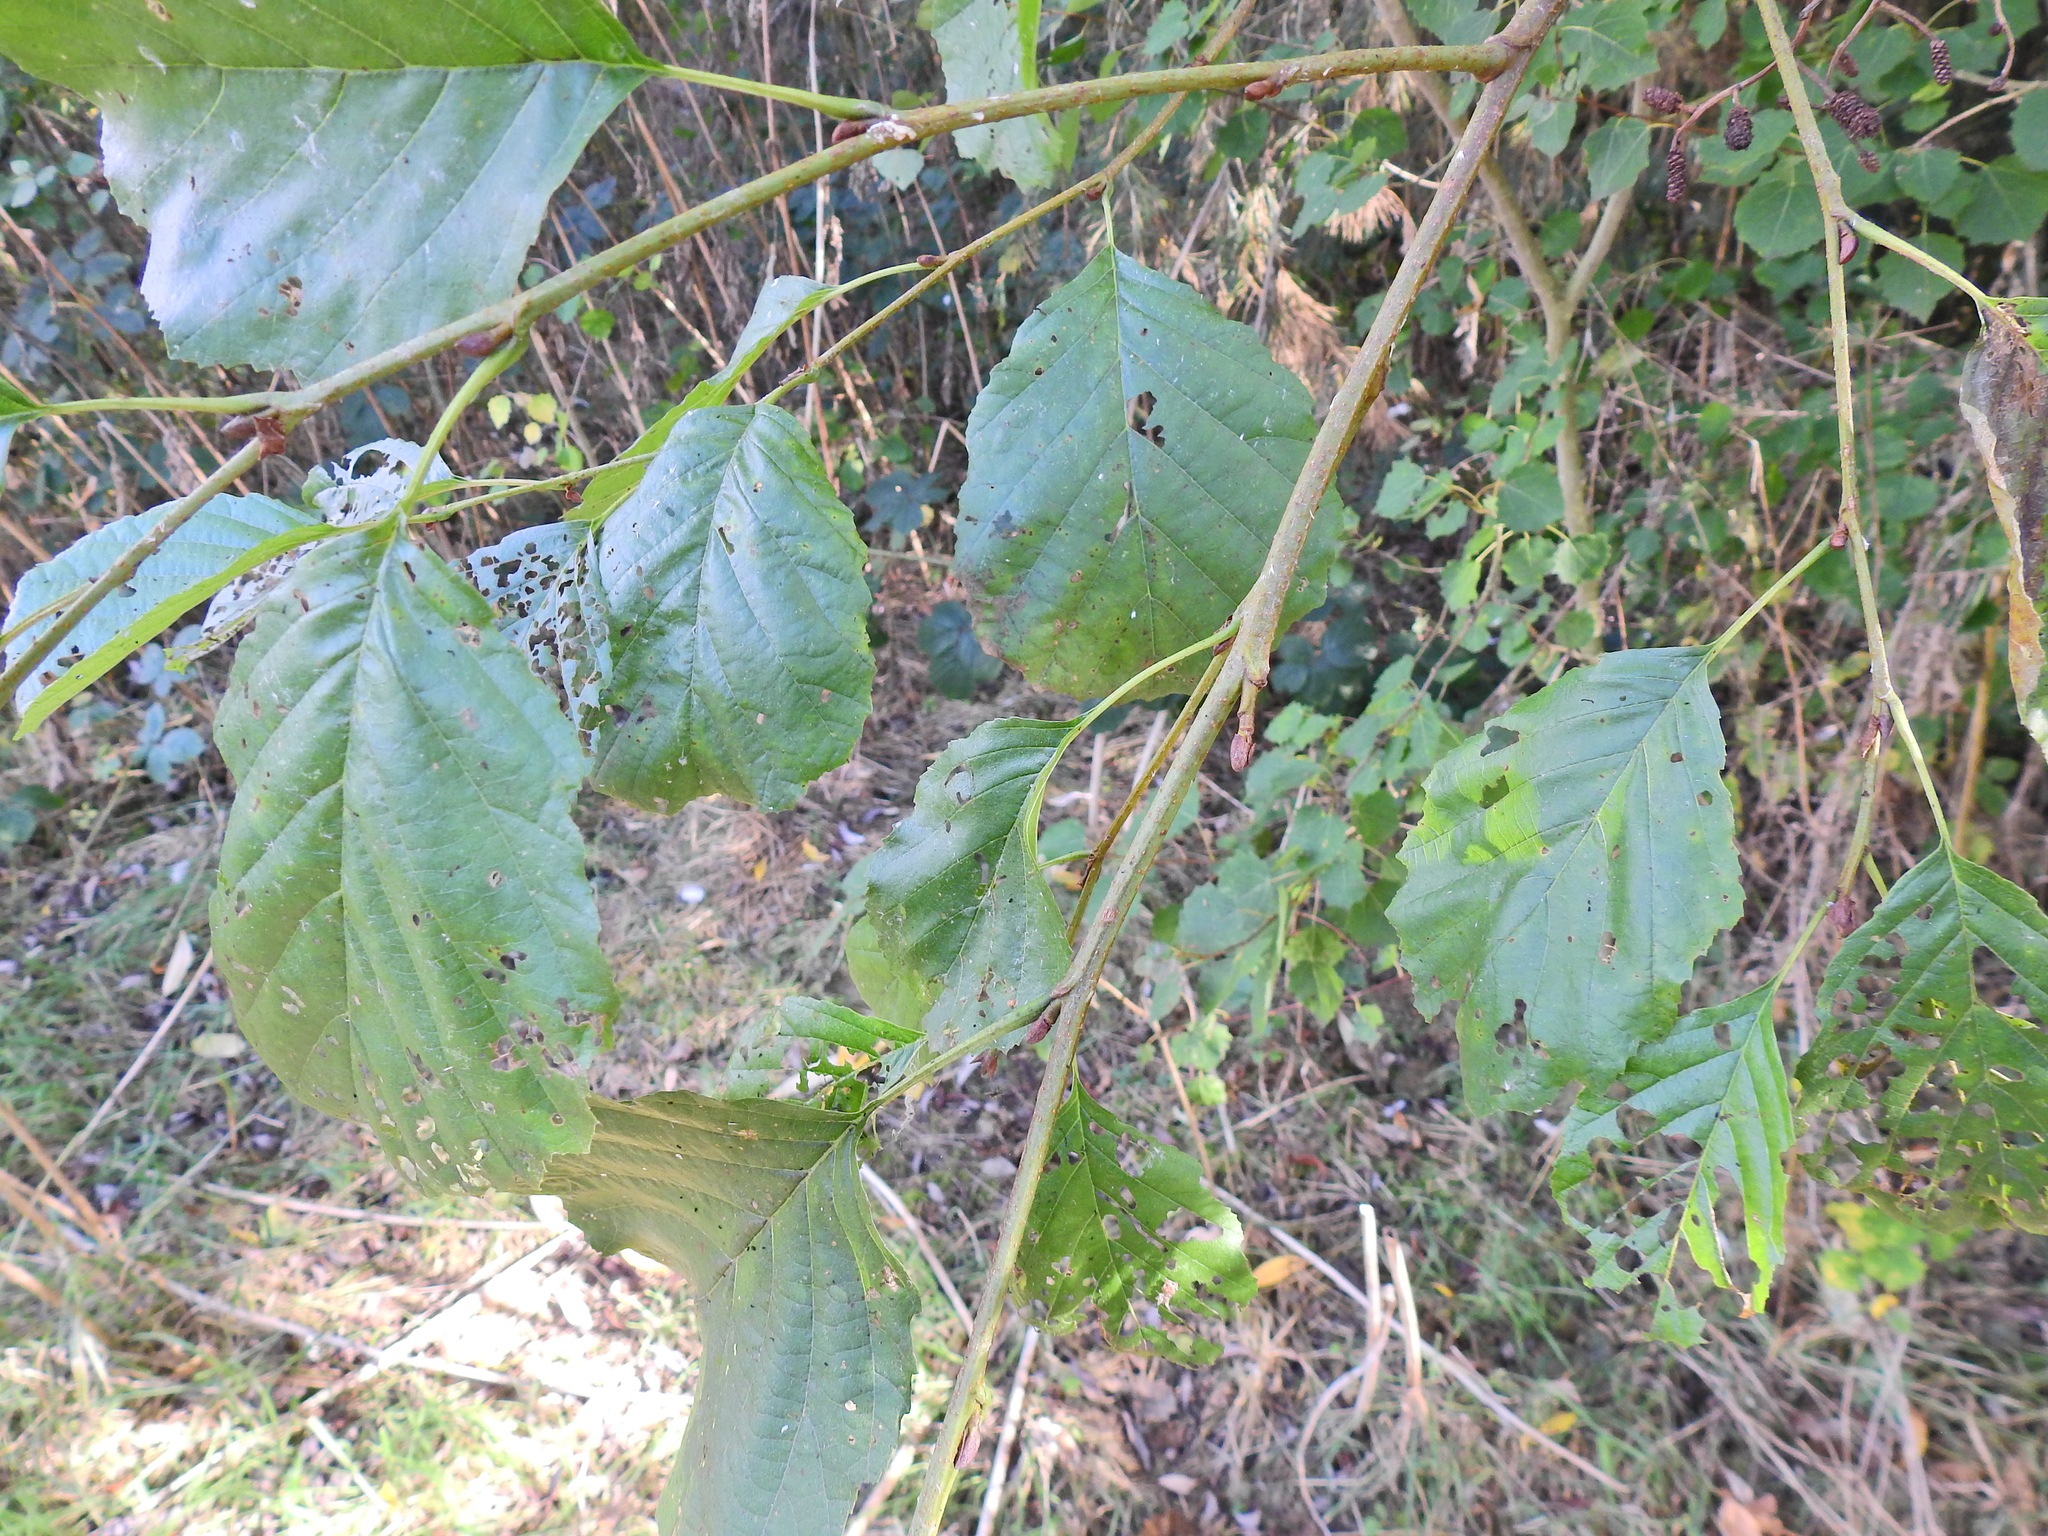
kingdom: Plantae
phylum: Tracheophyta
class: Magnoliopsida
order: Fagales
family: Betulaceae
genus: Alnus
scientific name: Alnus glutinosa
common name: Black alder
